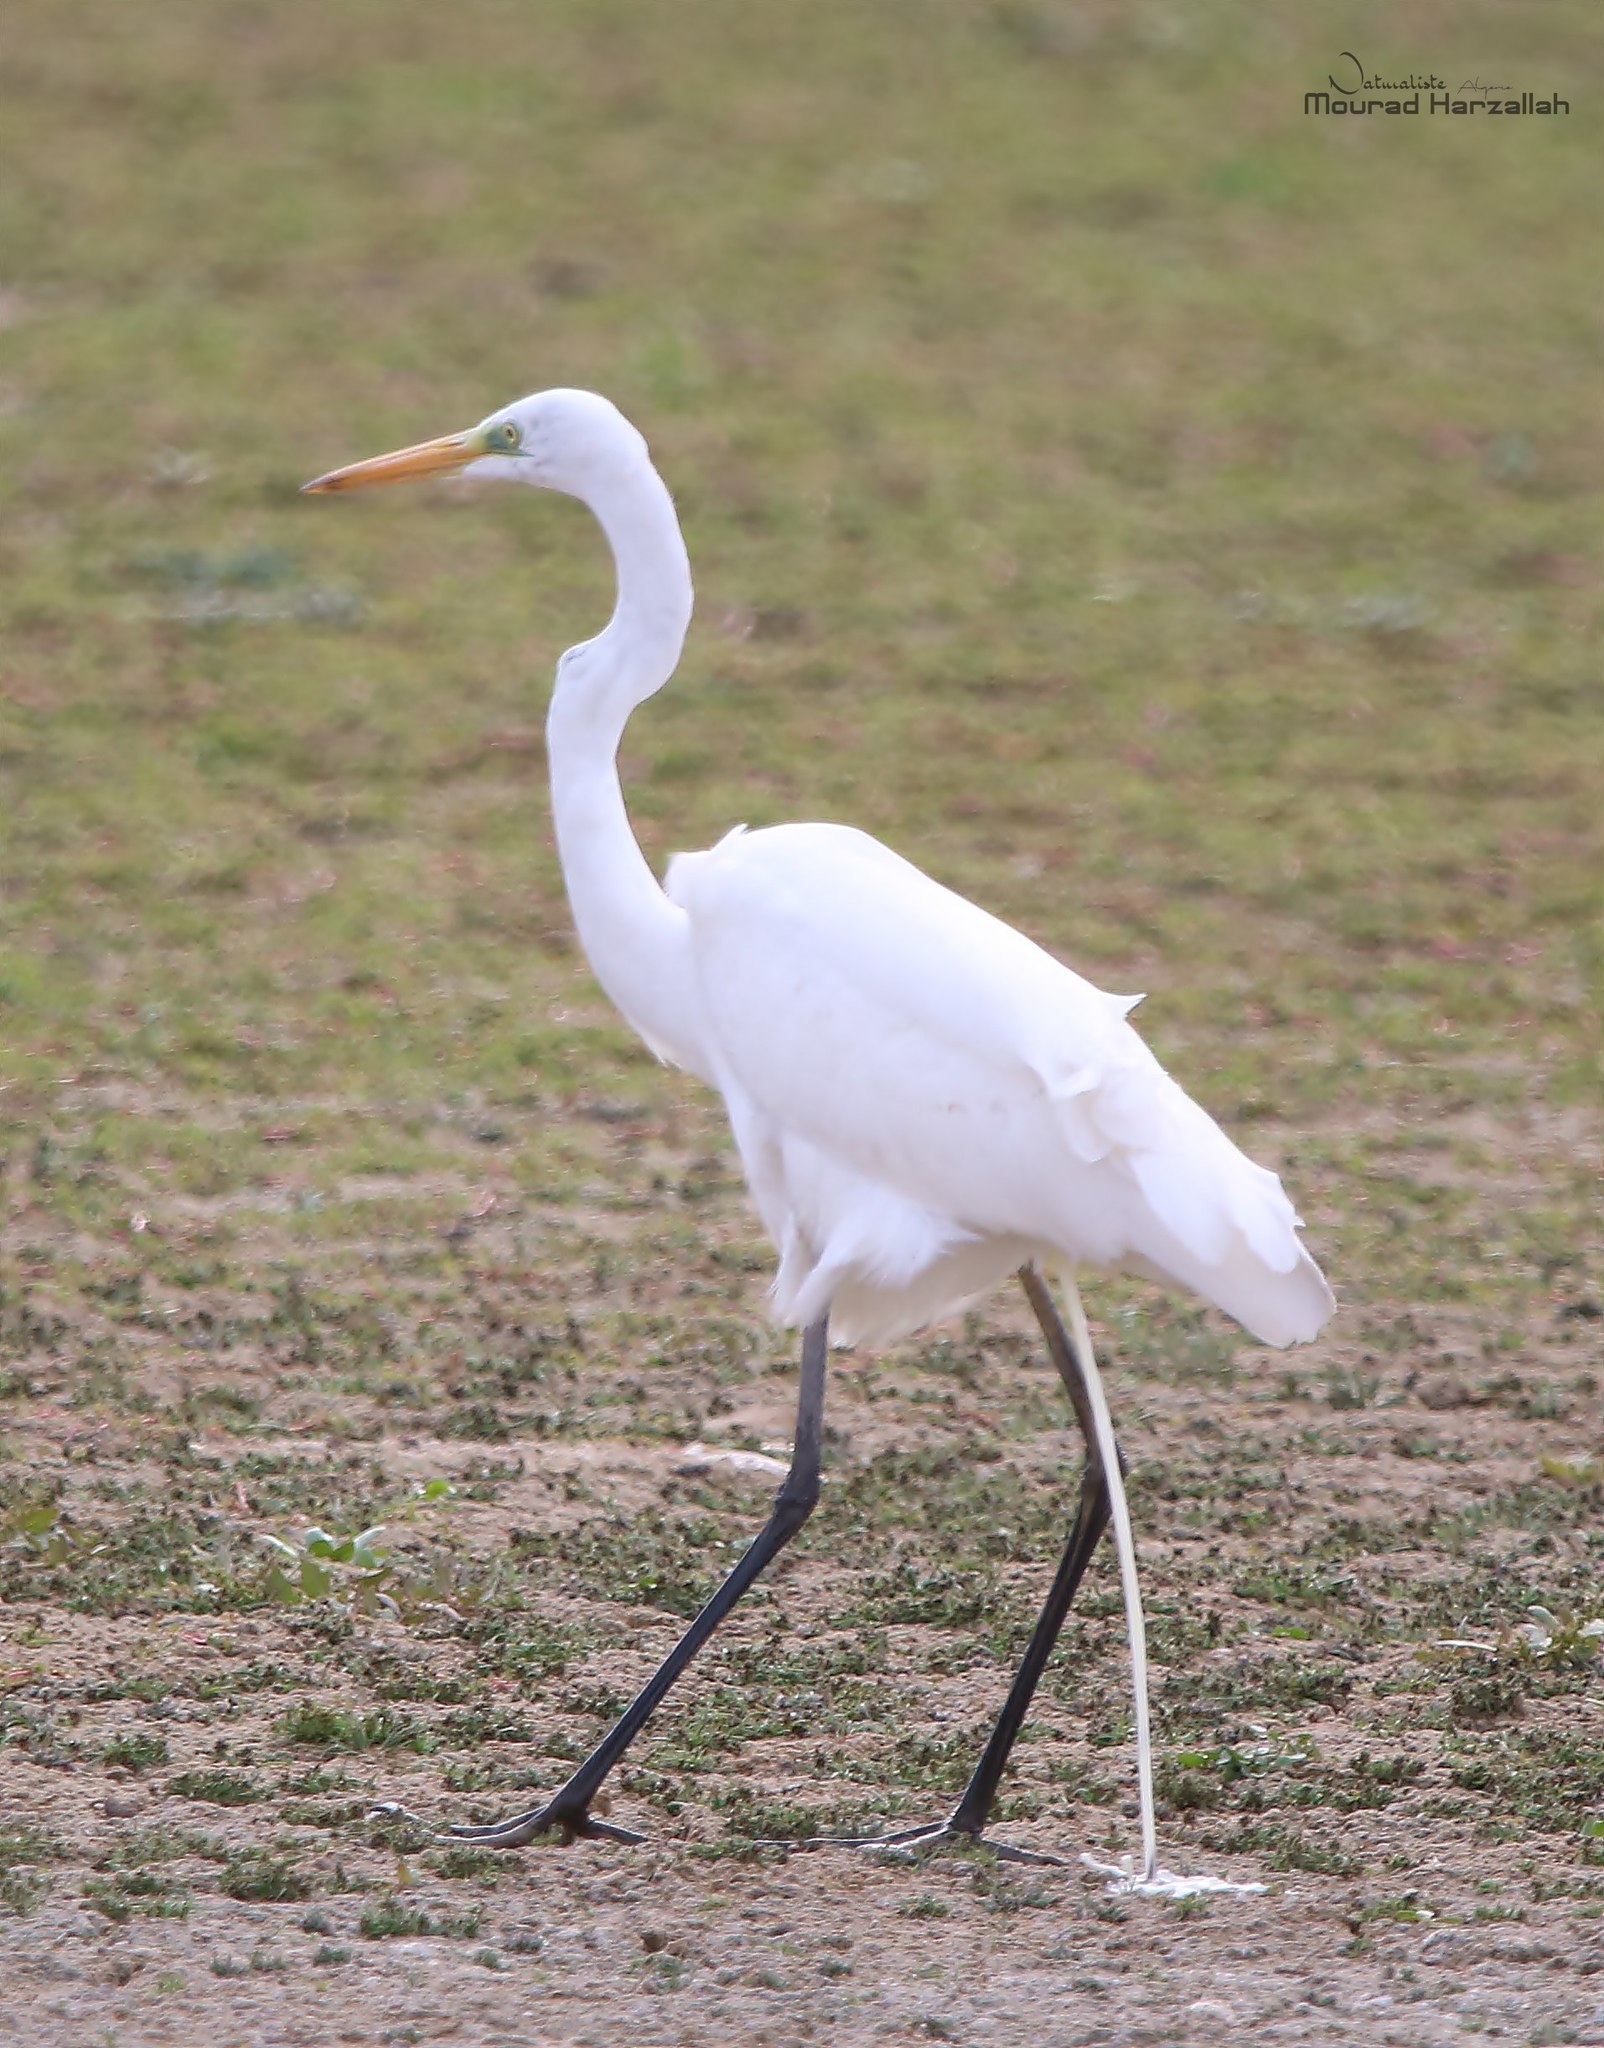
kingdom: Animalia
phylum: Chordata
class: Aves
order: Pelecaniformes
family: Ardeidae
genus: Ardea
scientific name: Ardea alba
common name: Great egret
